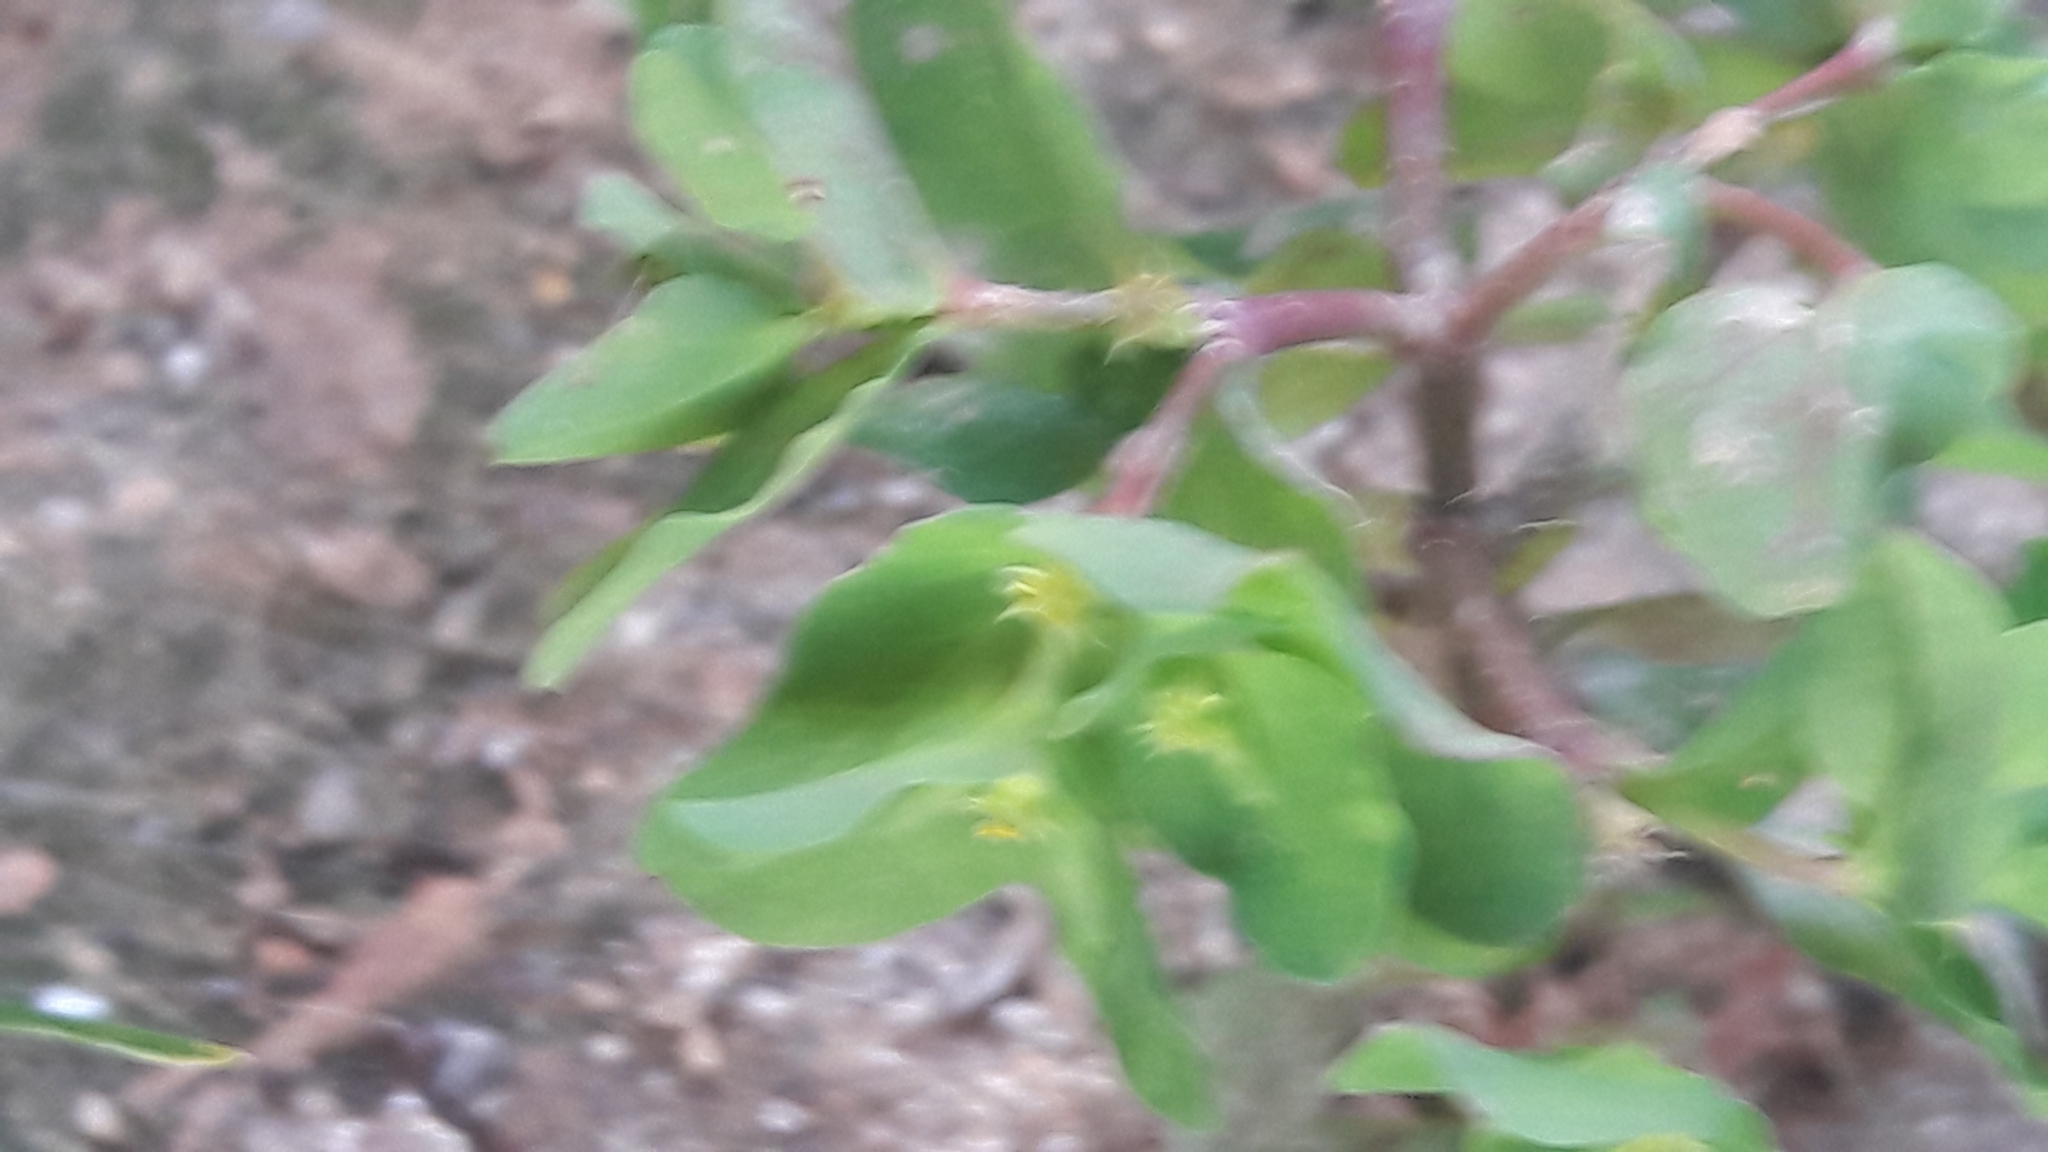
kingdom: Plantae
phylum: Tracheophyta
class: Magnoliopsida
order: Malpighiales
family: Euphorbiaceae
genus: Euphorbia
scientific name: Euphorbia peplus
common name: Petty spurge
